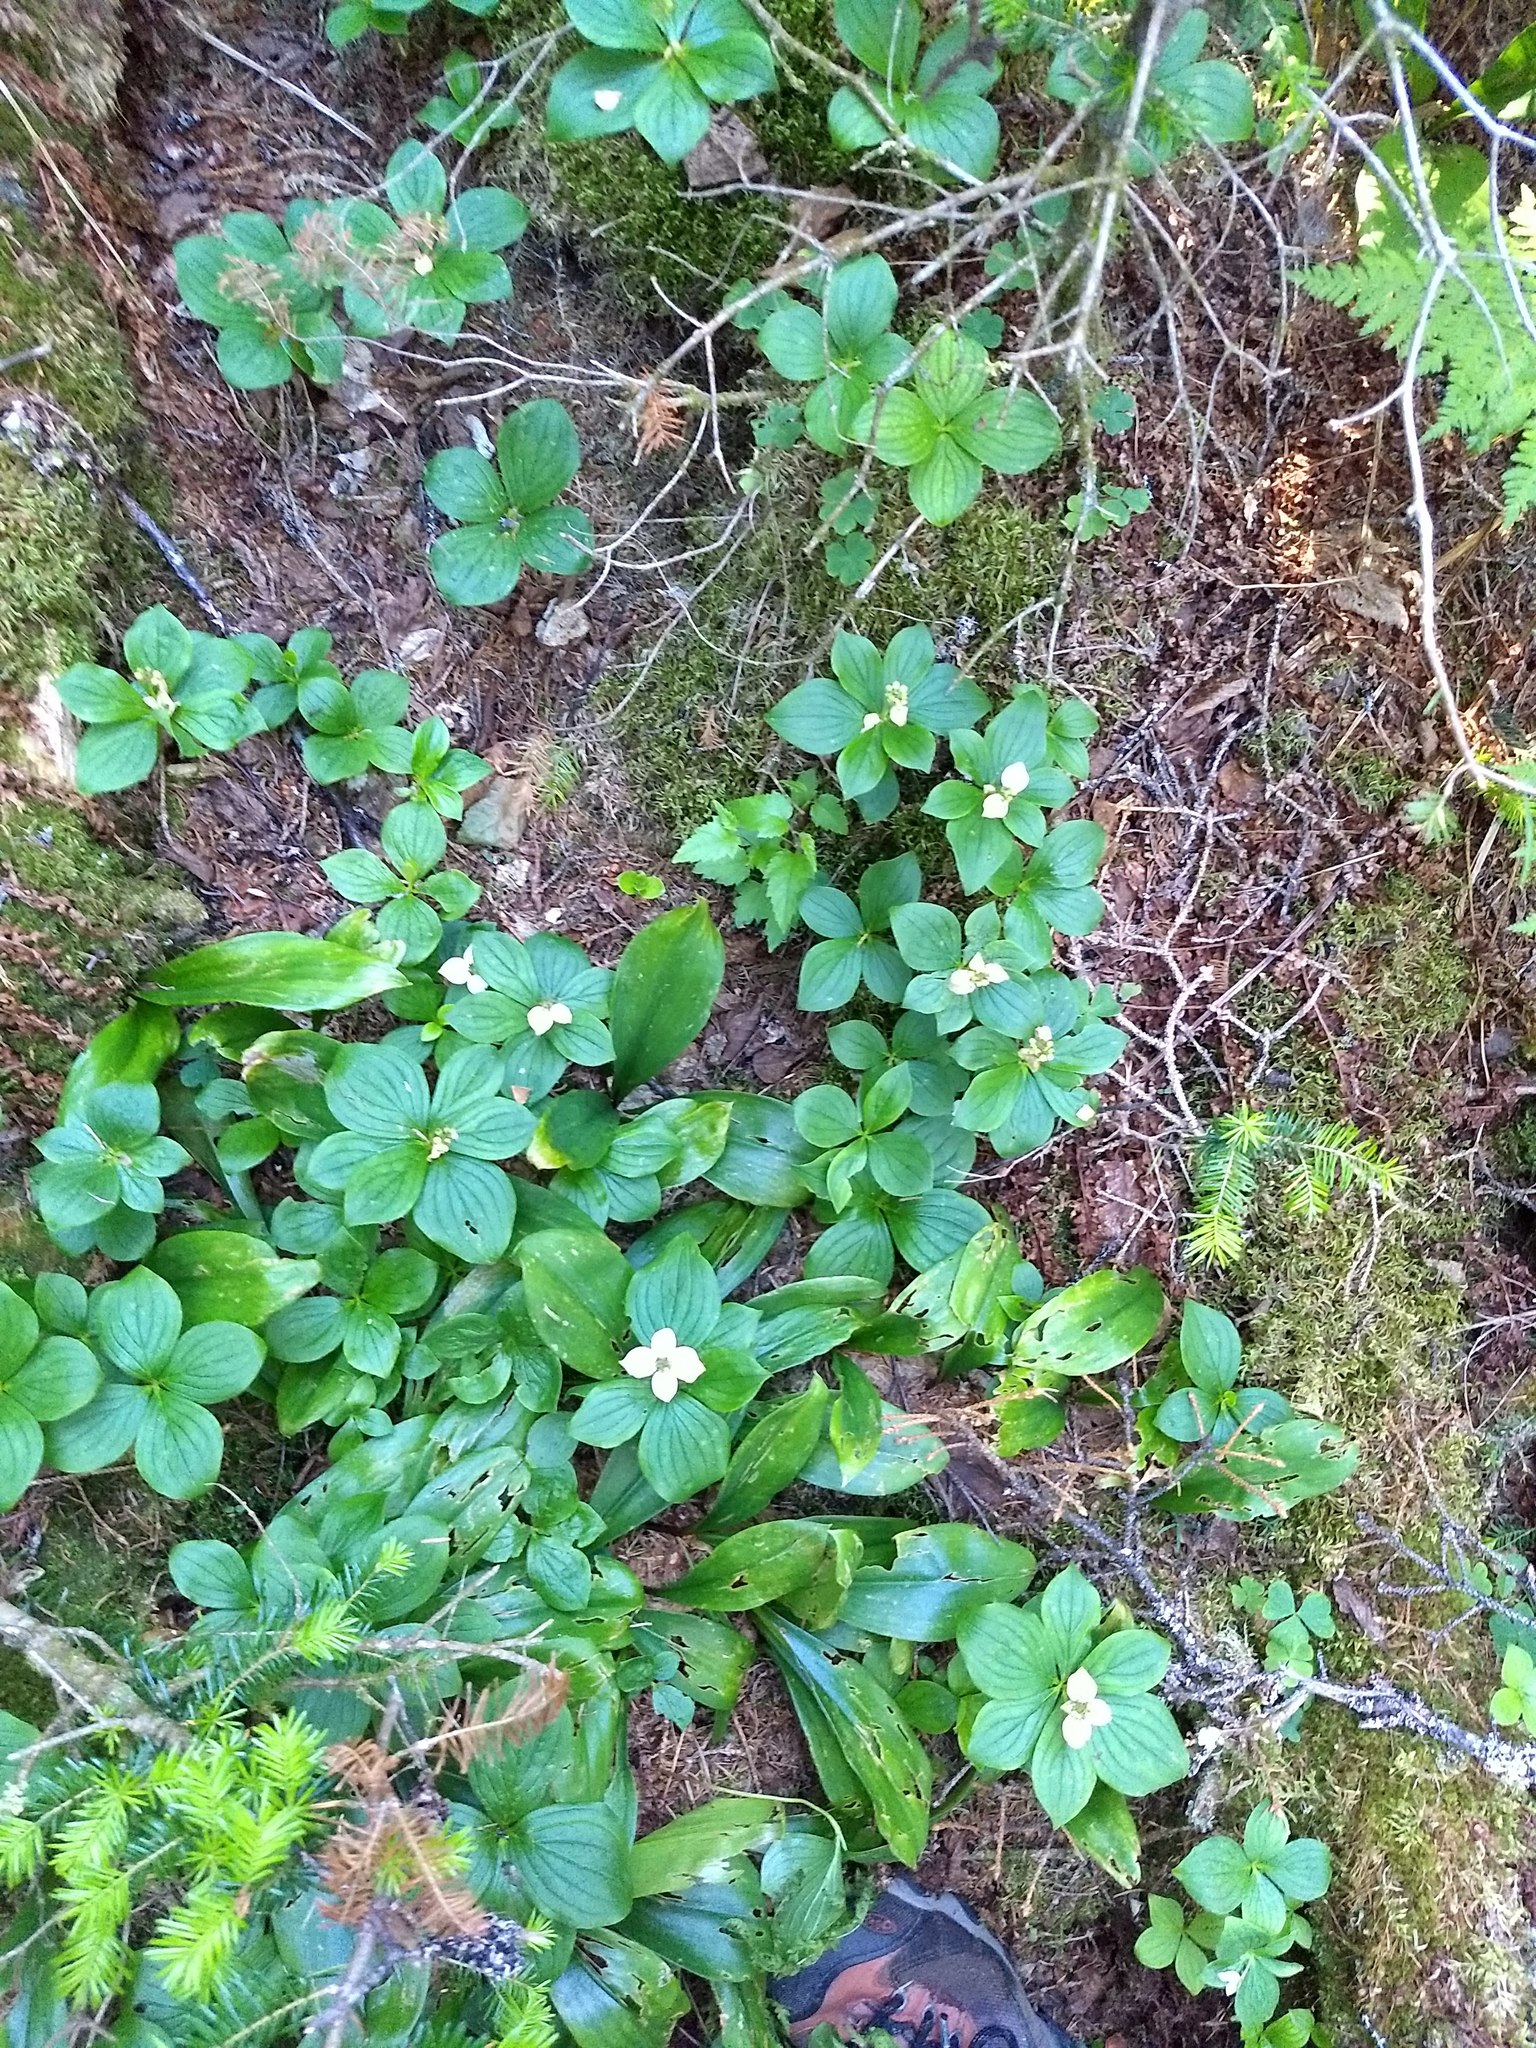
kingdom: Plantae
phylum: Tracheophyta
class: Magnoliopsida
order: Cornales
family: Cornaceae
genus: Cornus
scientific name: Cornus canadensis
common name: Creeping dogwood
